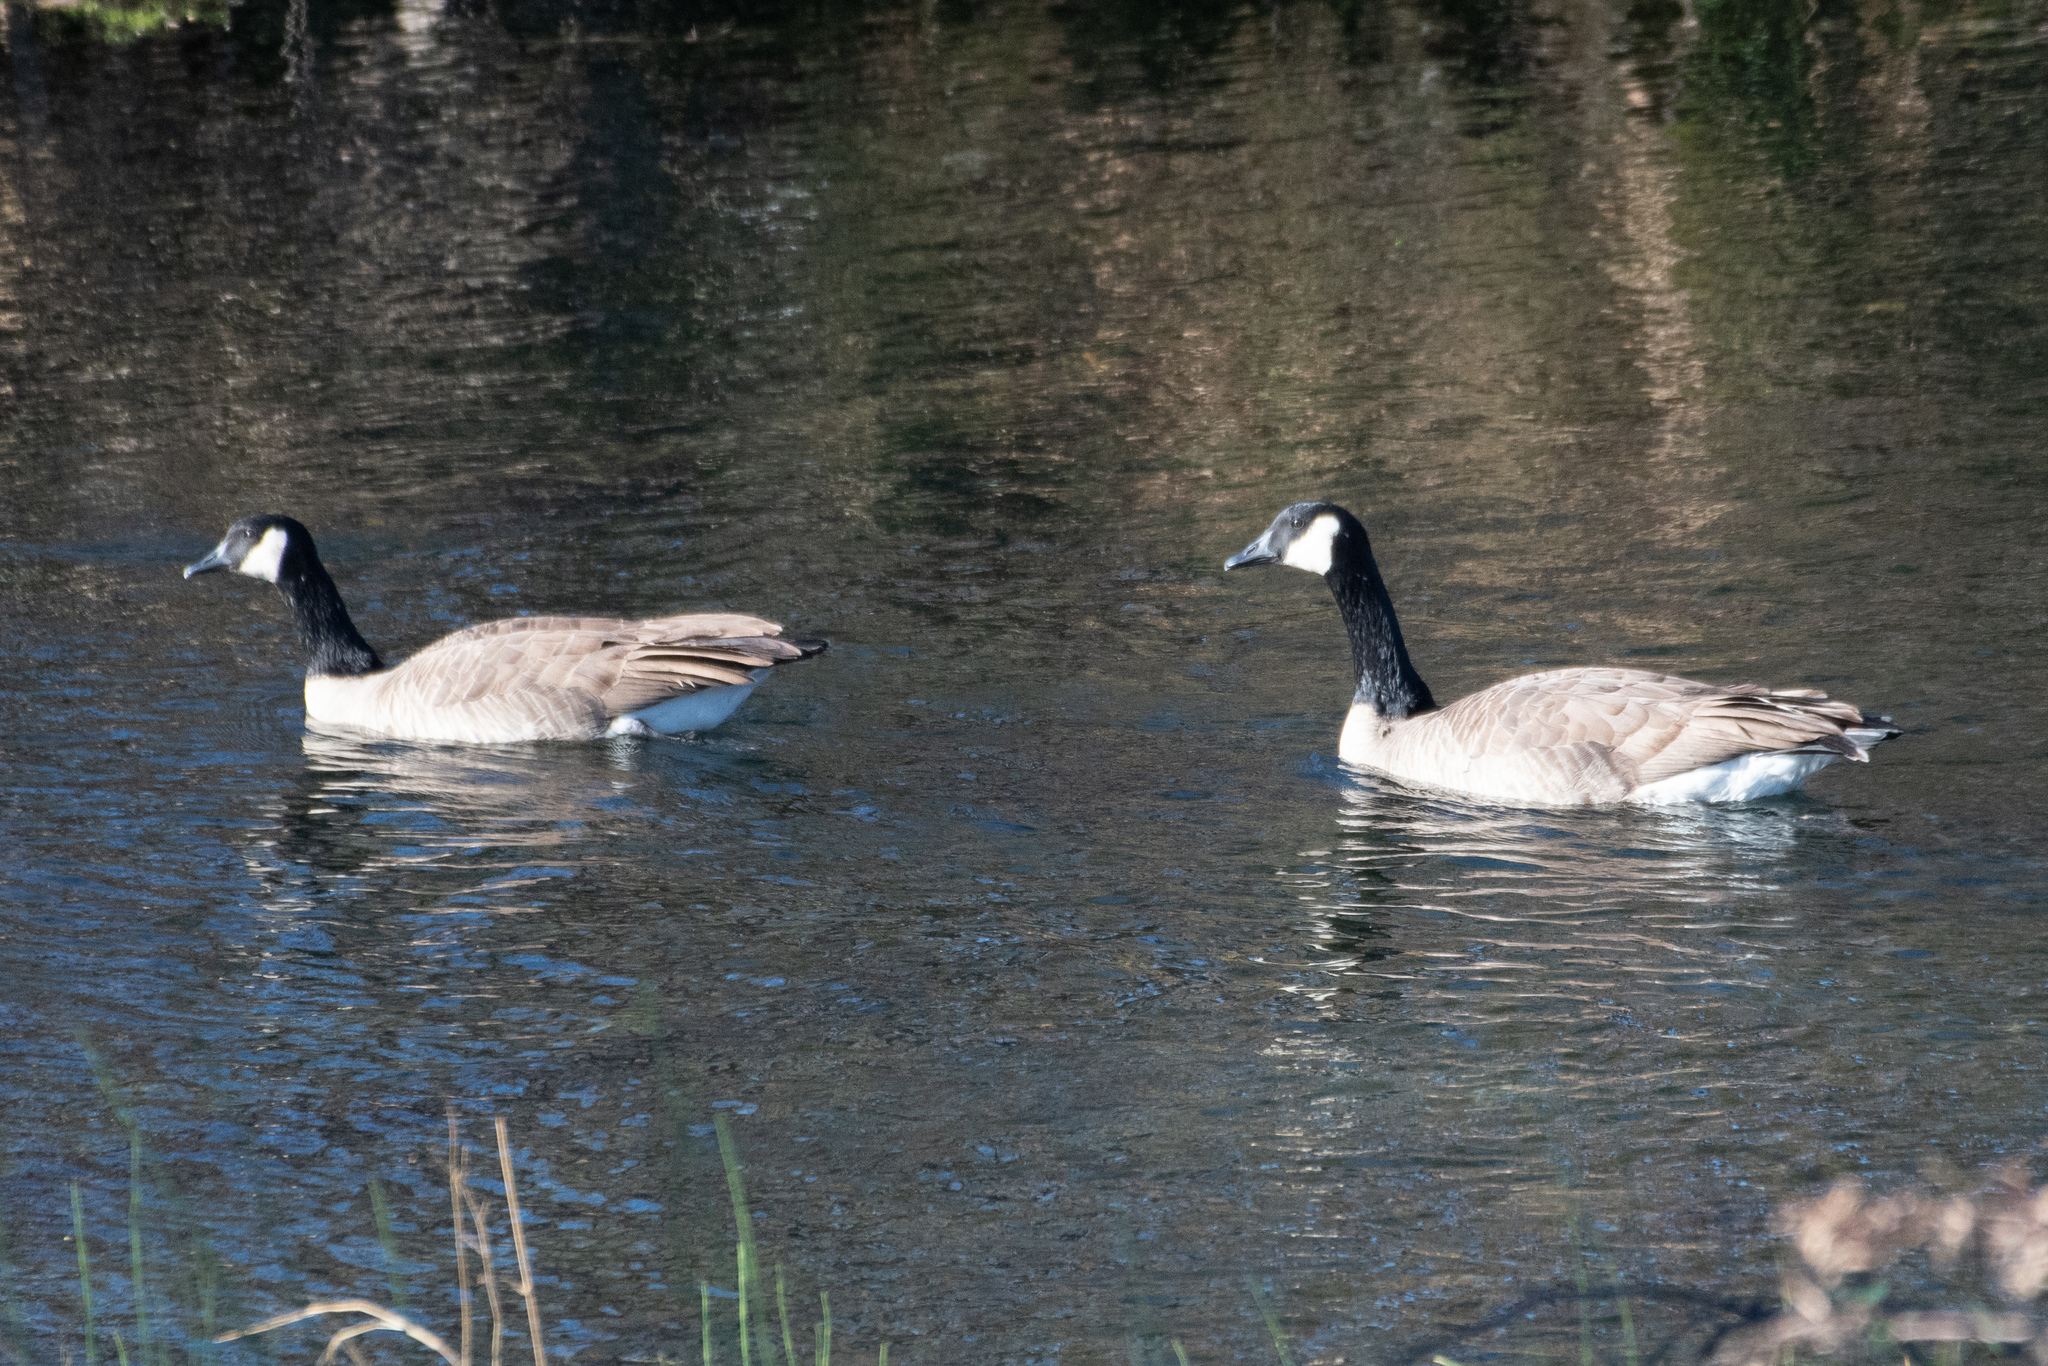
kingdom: Animalia
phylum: Chordata
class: Aves
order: Anseriformes
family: Anatidae
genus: Branta
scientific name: Branta canadensis
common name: Canada goose
